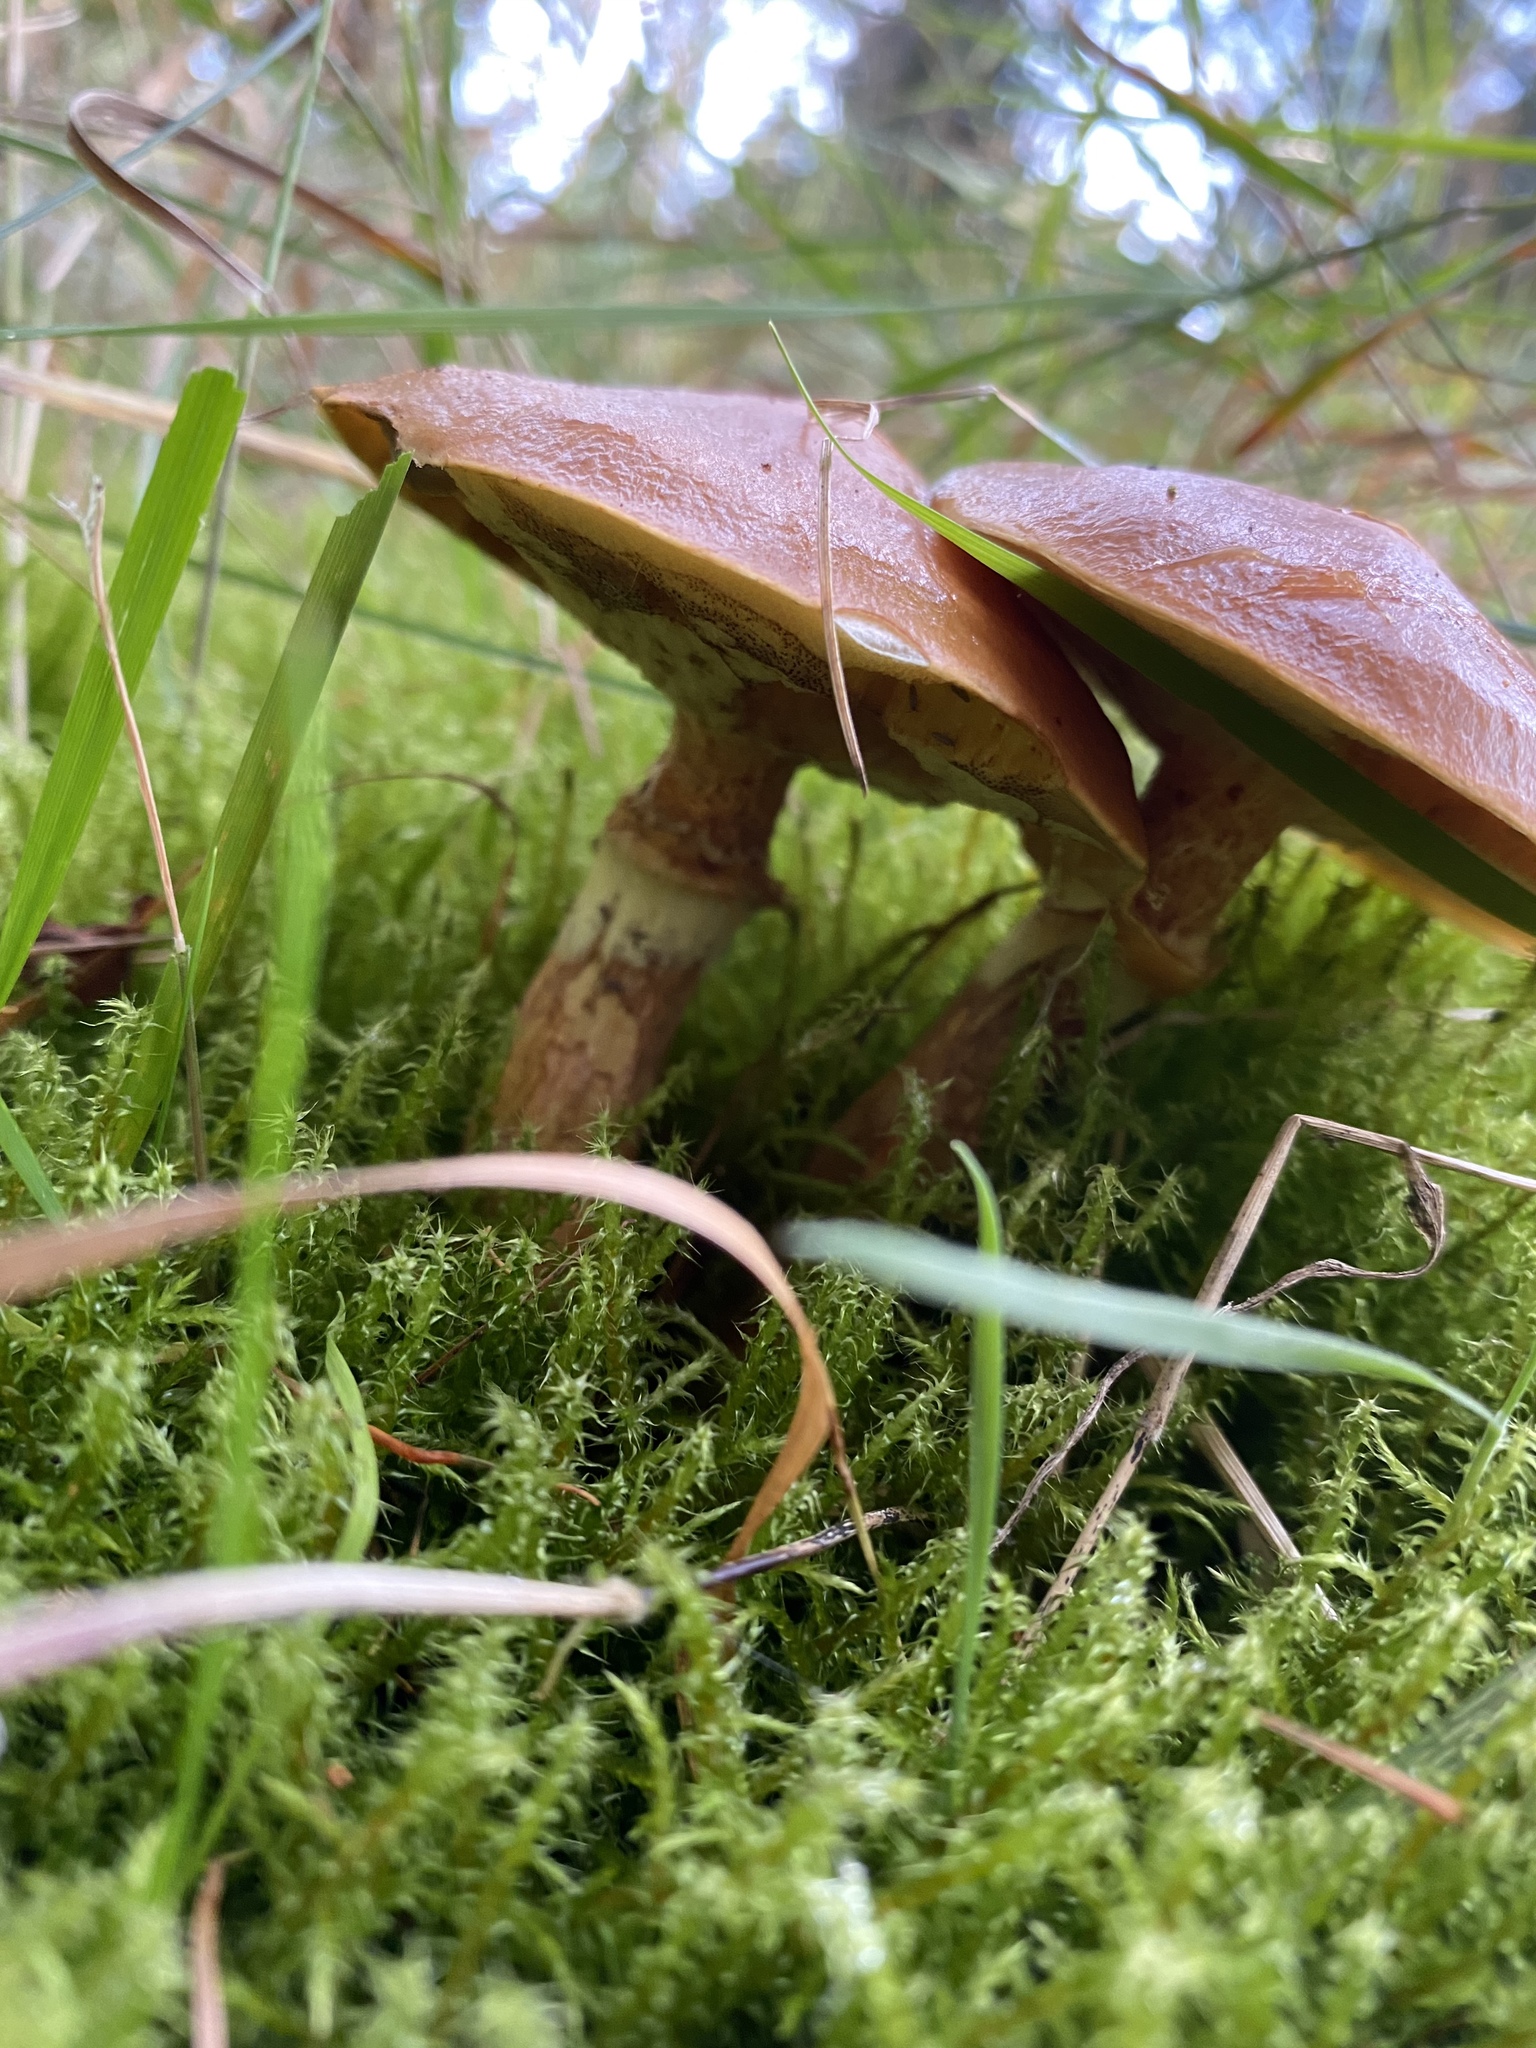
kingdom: Fungi
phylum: Basidiomycota
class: Agaricomycetes
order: Boletales
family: Suillaceae
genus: Suillus
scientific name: Suillus grevillei
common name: Larch bolete
